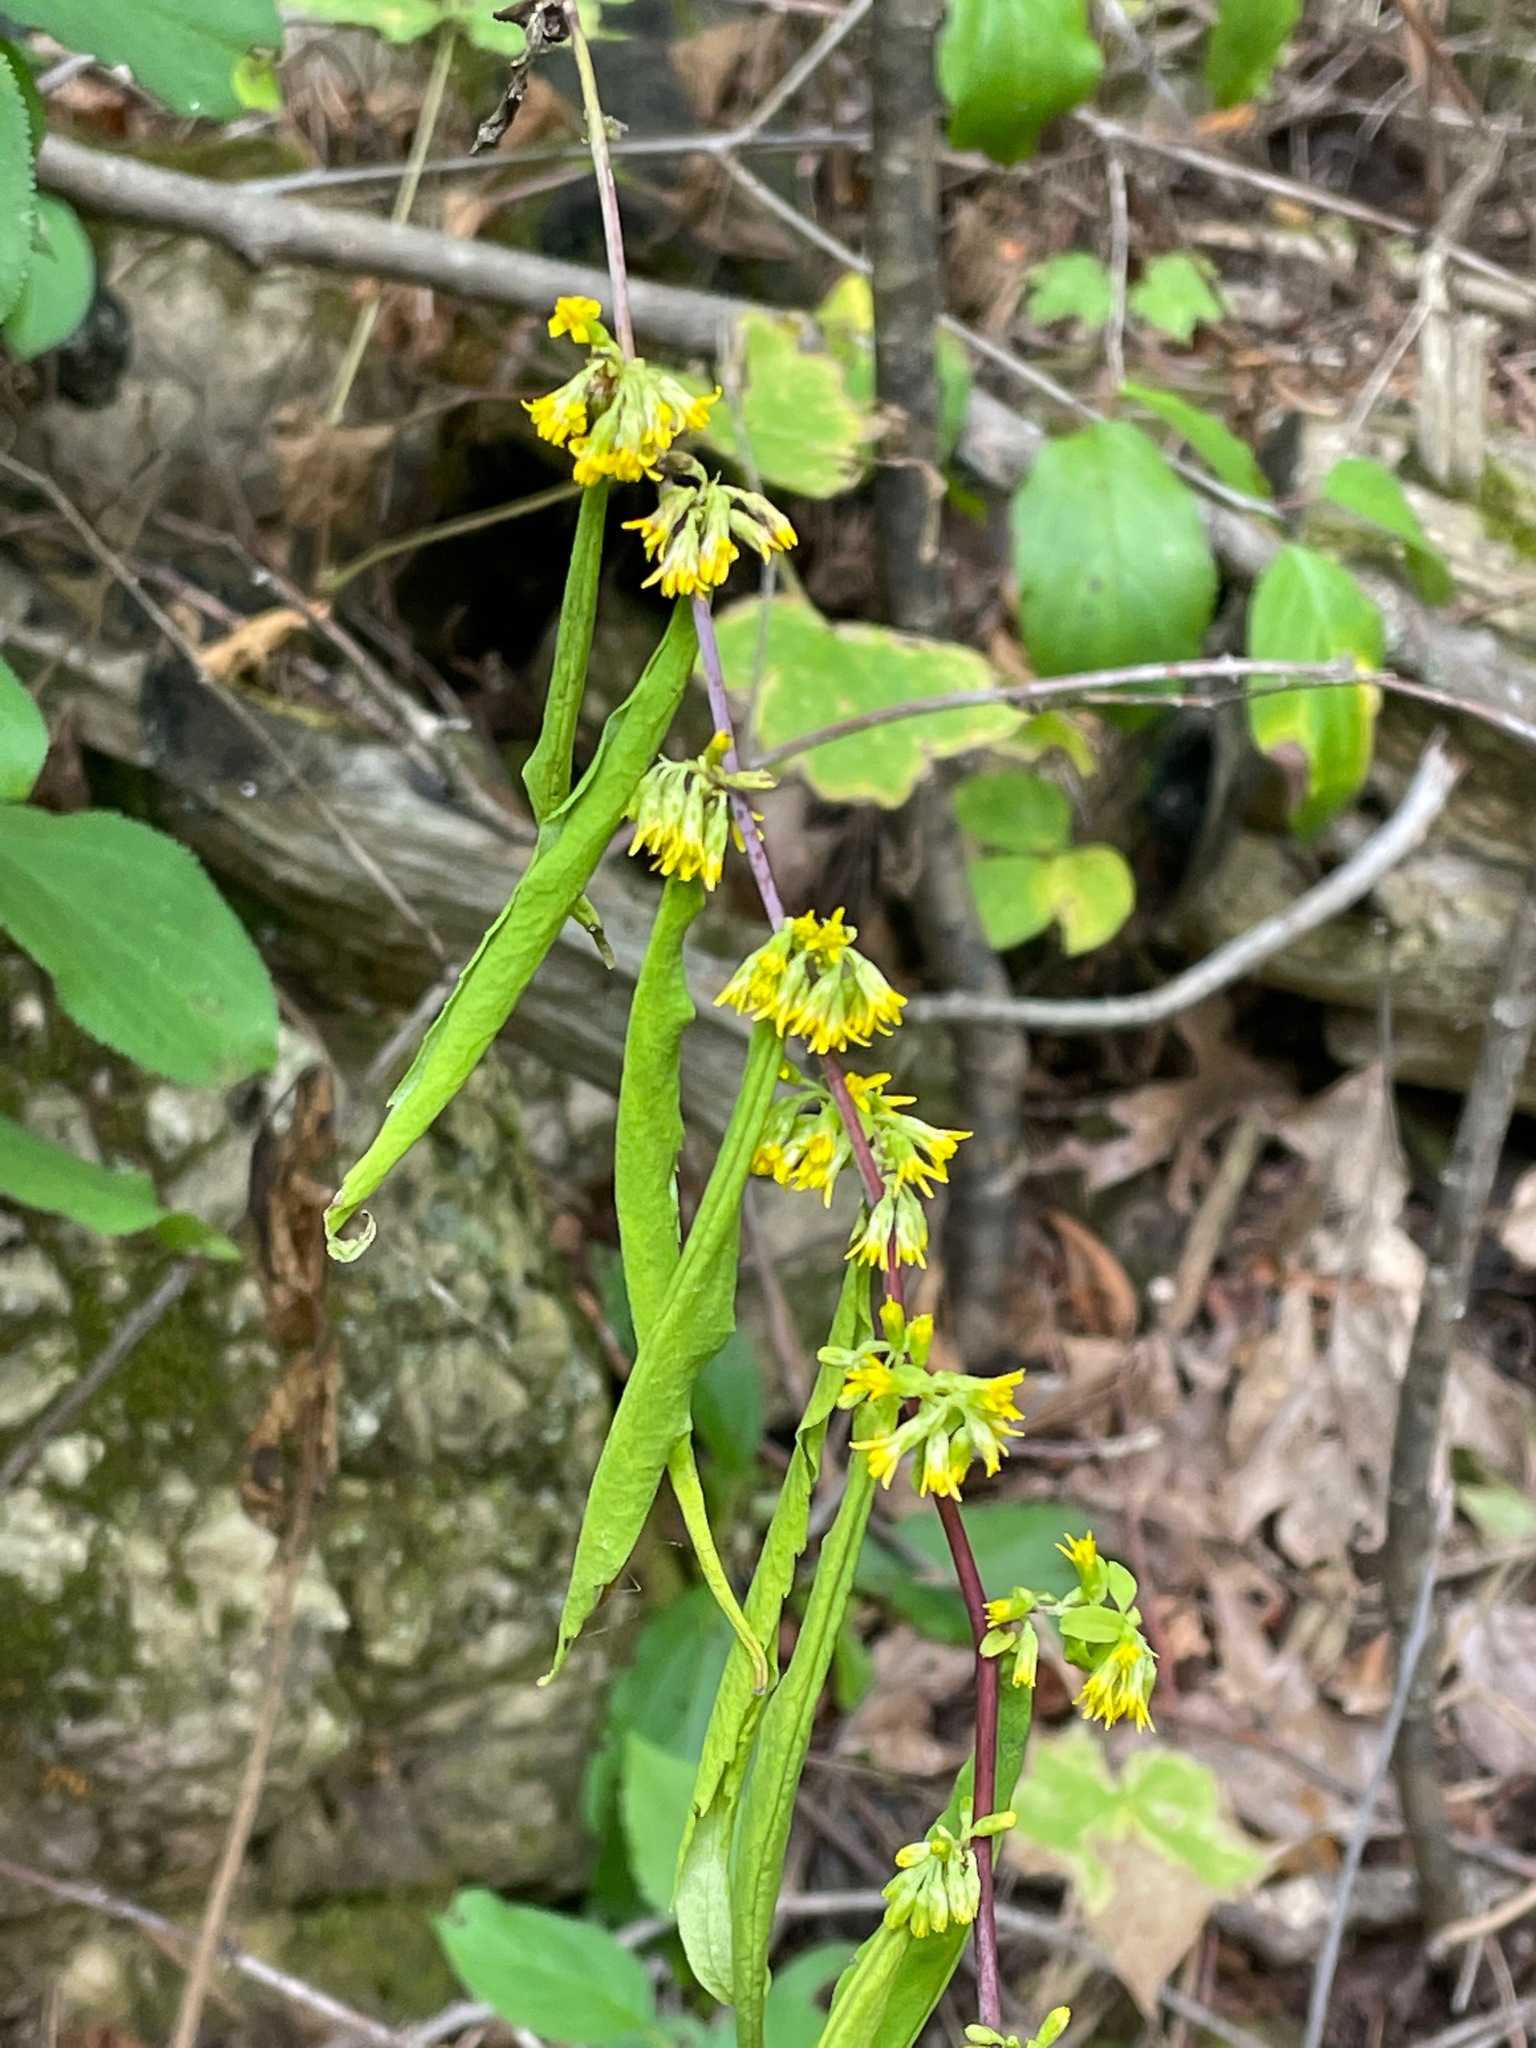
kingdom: Plantae
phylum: Tracheophyta
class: Magnoliopsida
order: Asterales
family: Asteraceae
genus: Solidago
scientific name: Solidago caesia
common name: Woodland goldenrod
